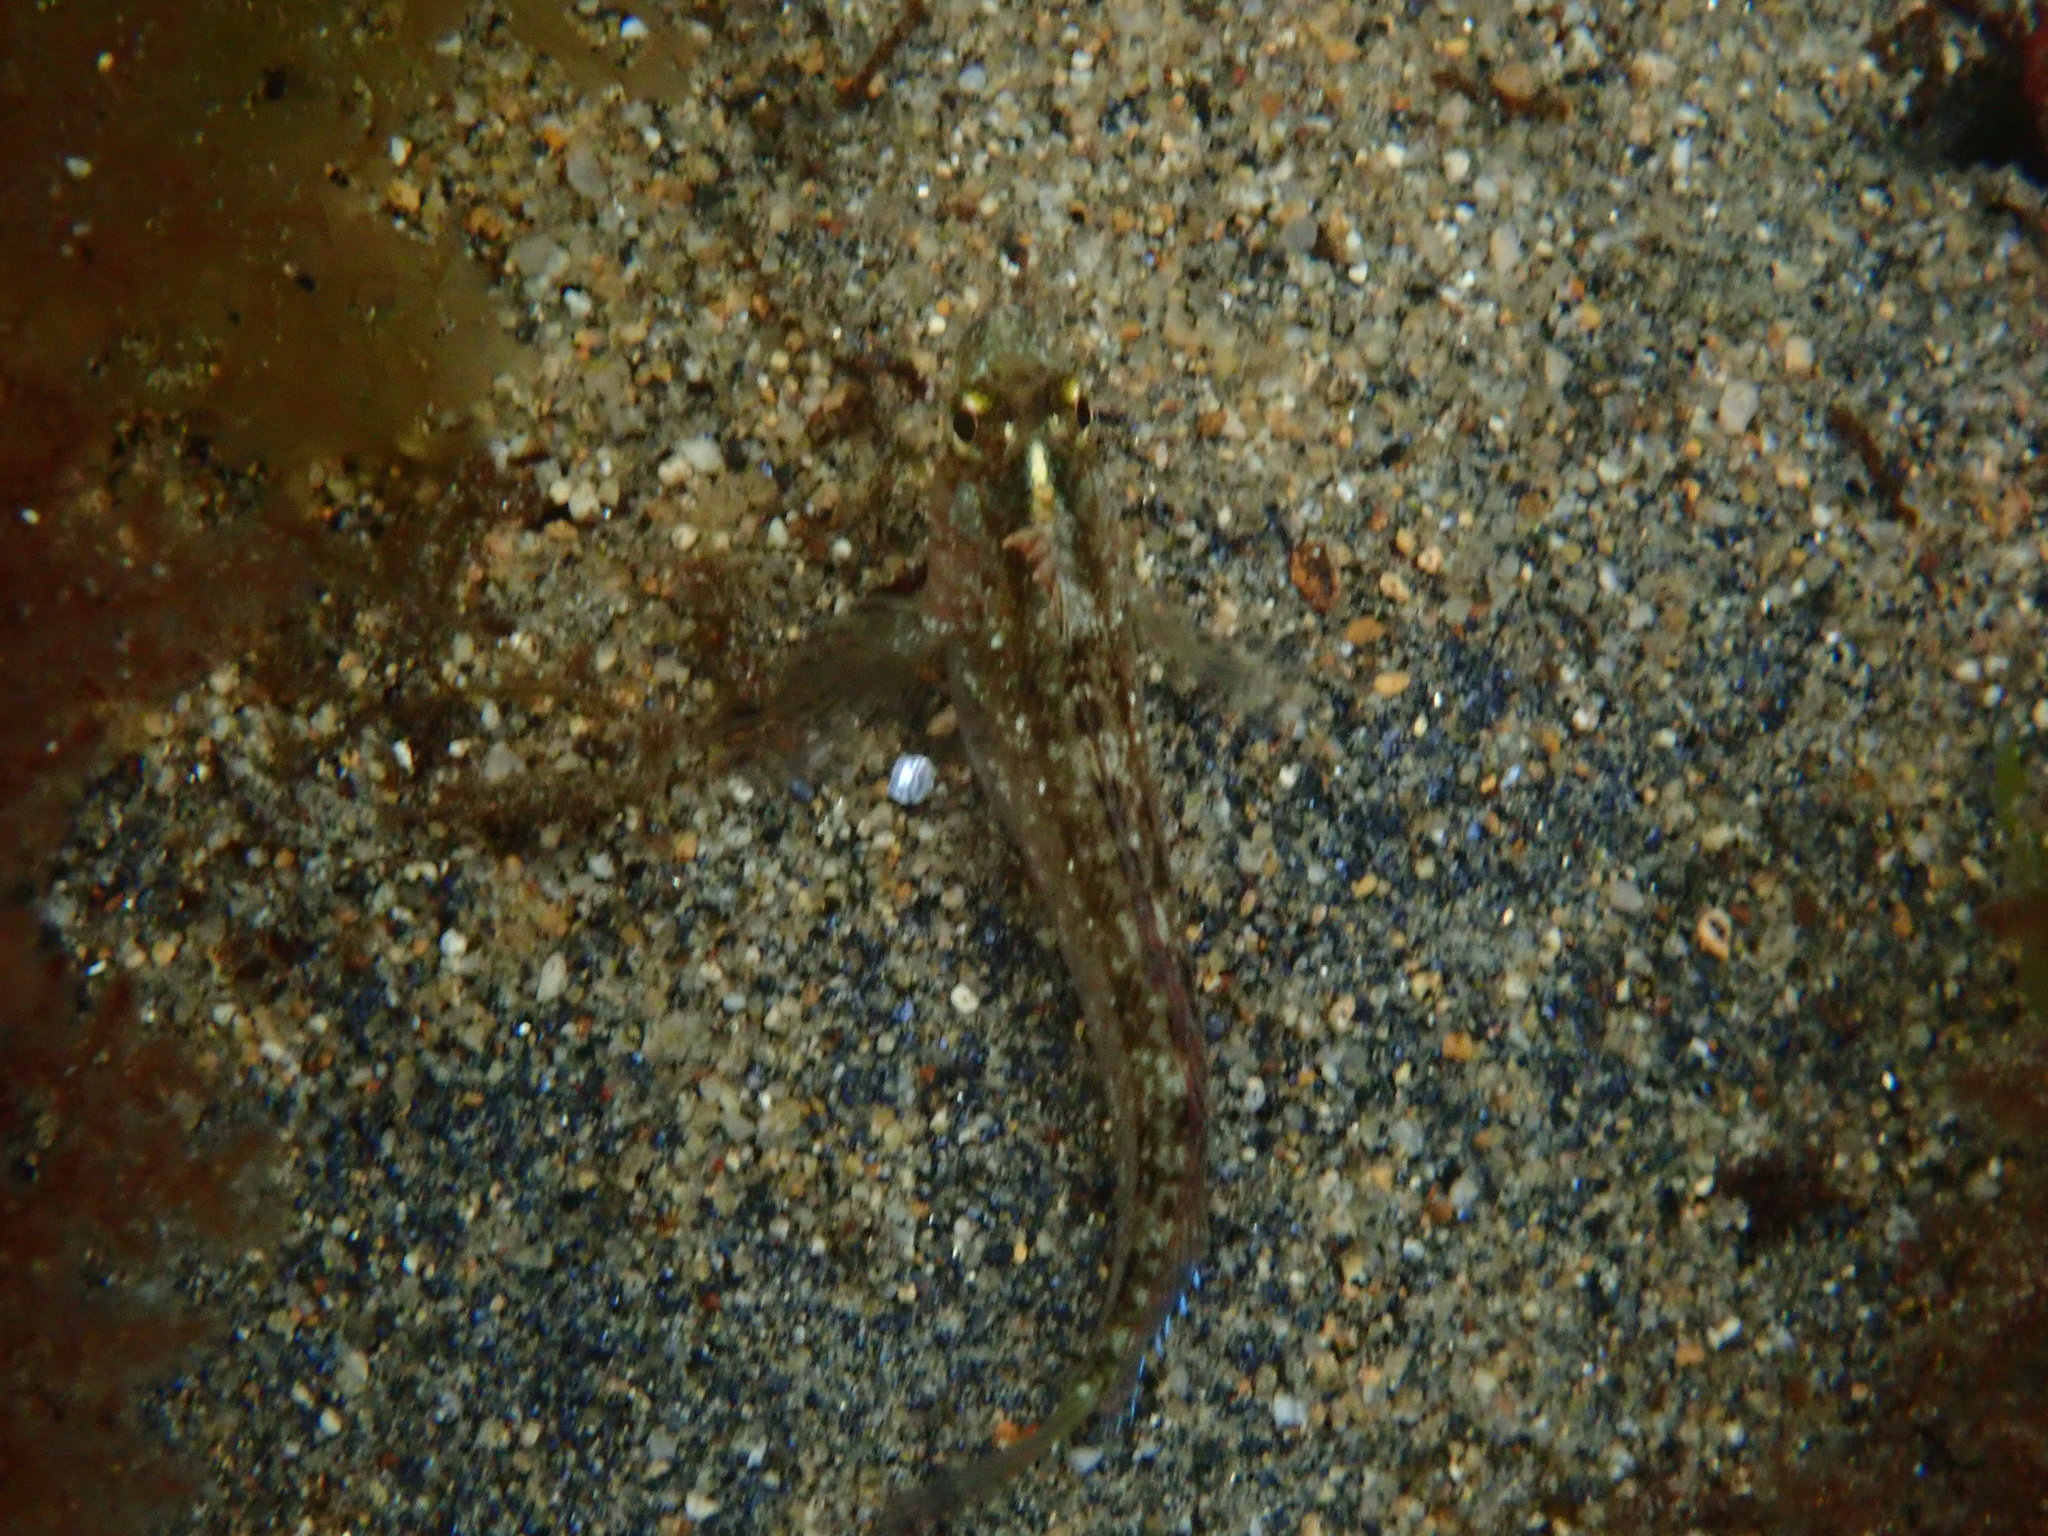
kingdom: Animalia
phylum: Chordata
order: Perciformes
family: Tripterygiidae
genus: Forsterygion
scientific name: Forsterygion lapillum
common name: Common triplefin
